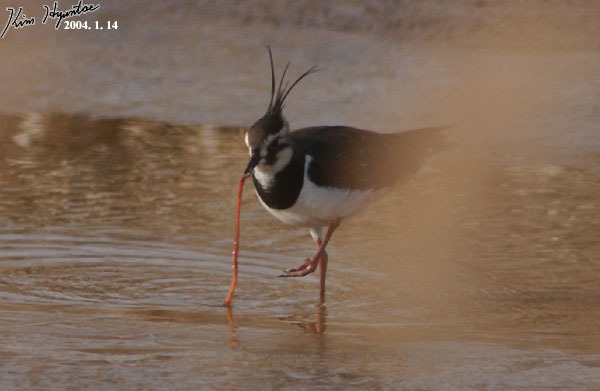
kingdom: Animalia
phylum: Chordata
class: Aves
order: Charadriiformes
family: Charadriidae
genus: Vanellus
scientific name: Vanellus vanellus
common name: Northern lapwing
